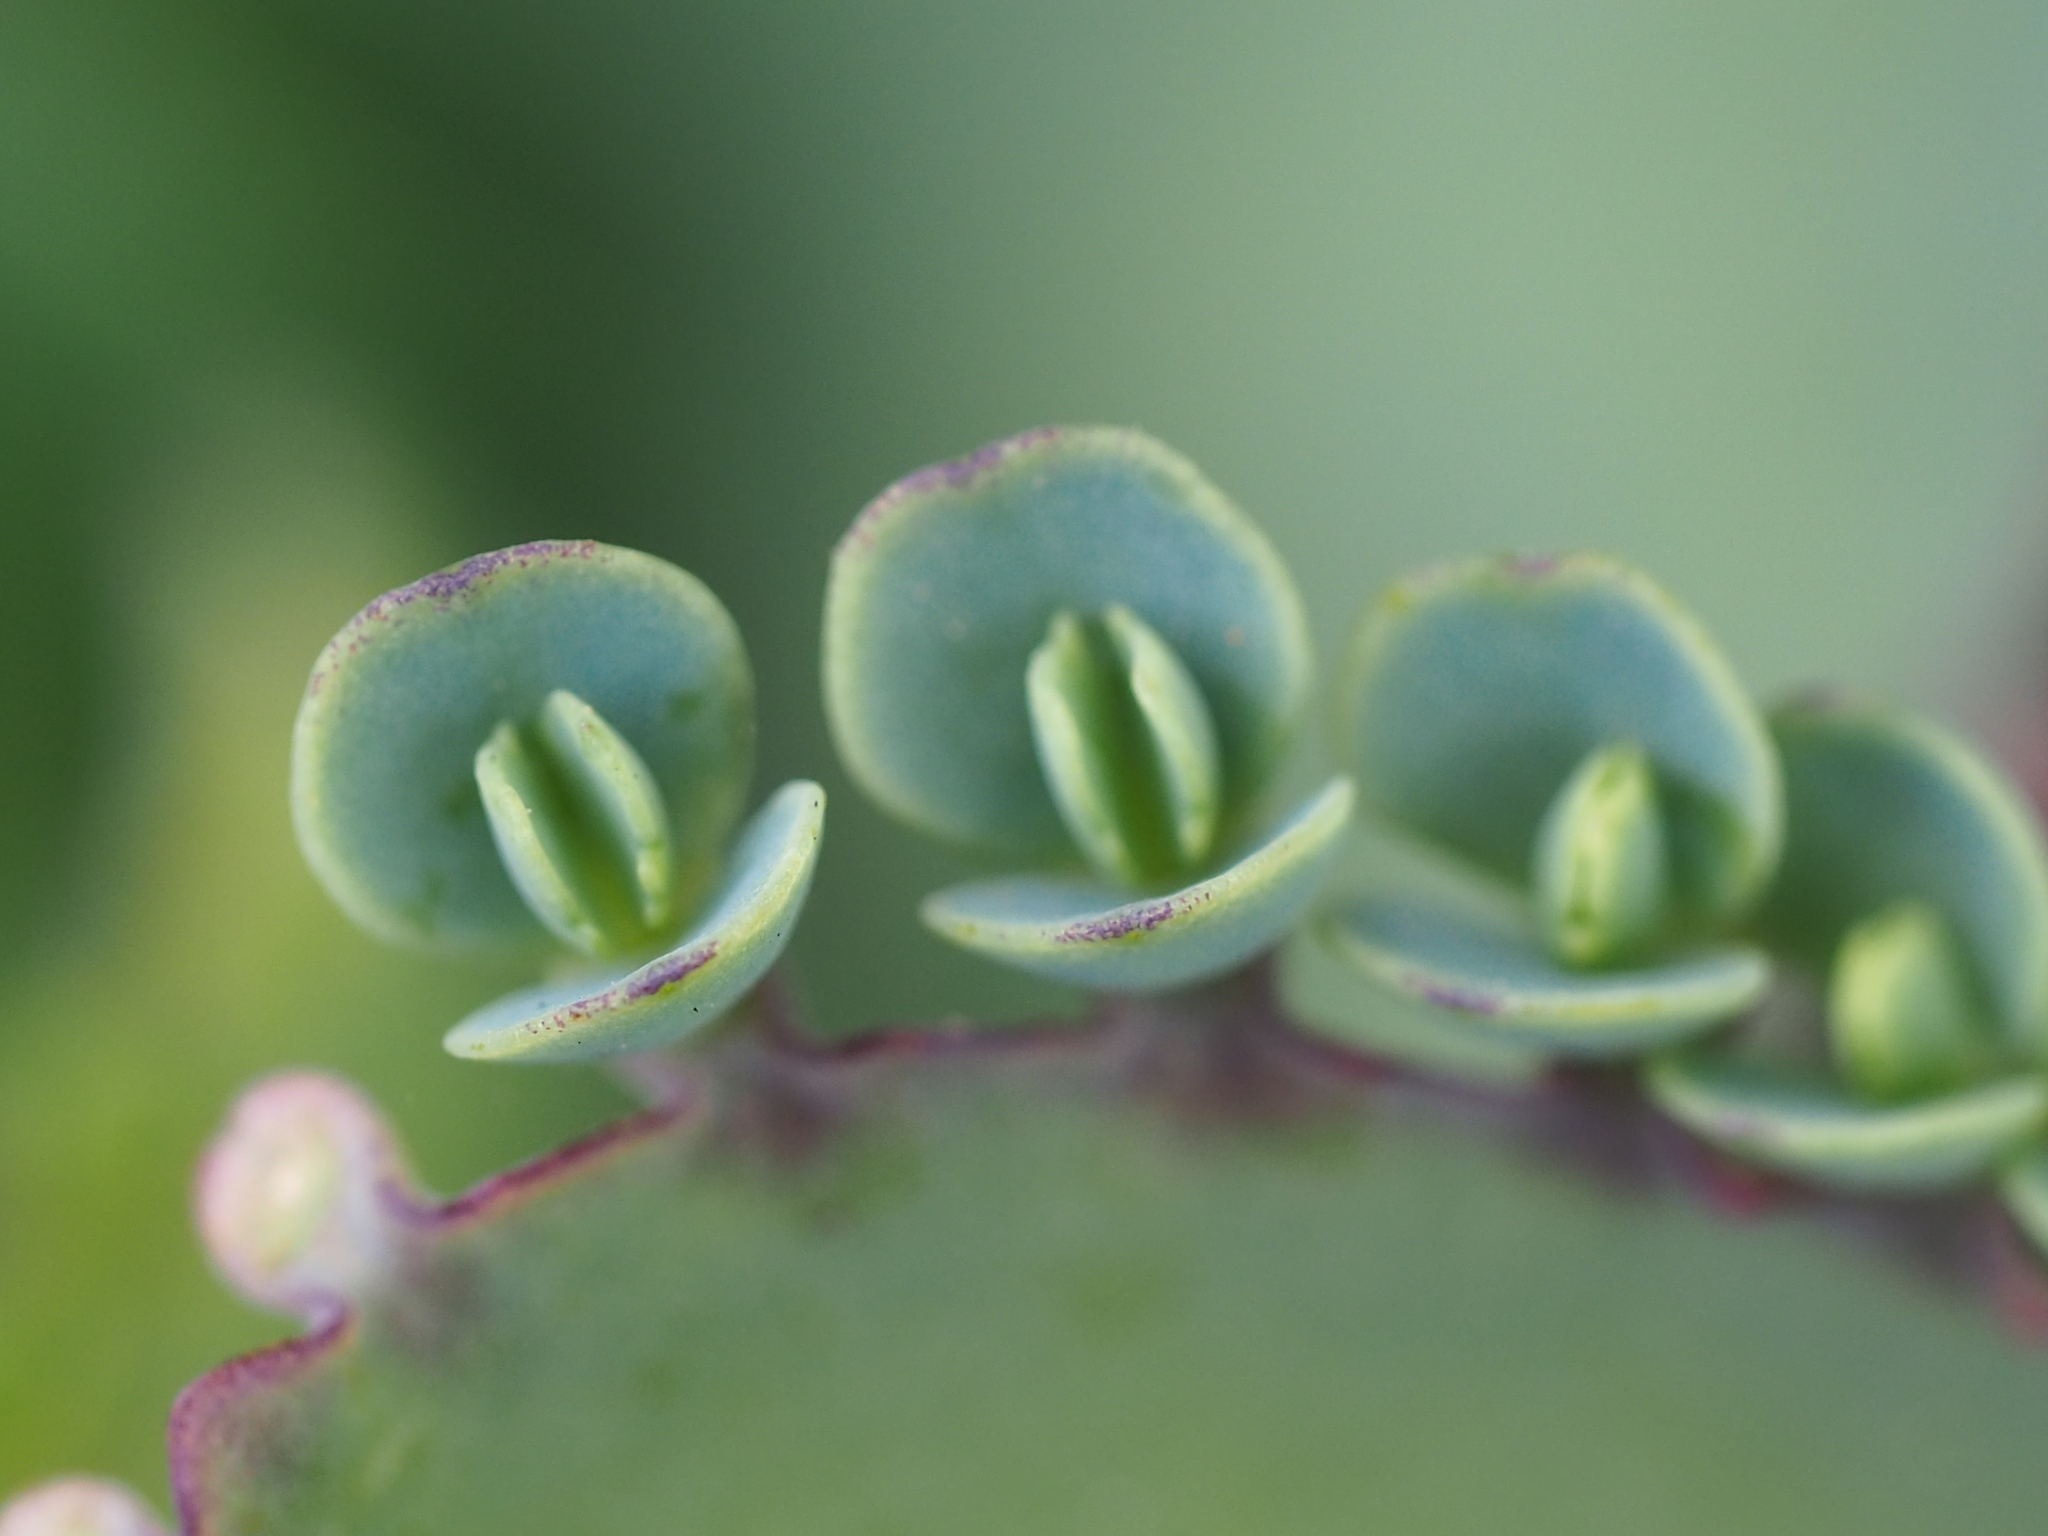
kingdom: Plantae
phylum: Tracheophyta
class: Magnoliopsida
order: Saxifragales
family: Crassulaceae
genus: Kalanchoe
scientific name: Kalanchoe laetivirens
